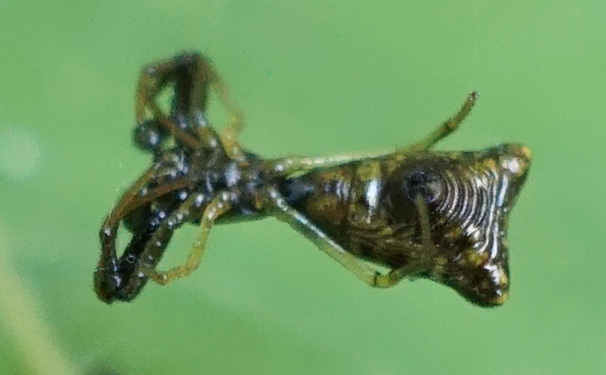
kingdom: Animalia
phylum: Arthropoda
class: Arachnida
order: Araneae
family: Araneidae
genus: Micrathena
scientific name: Micrathena sagittata
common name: Orb weavers
